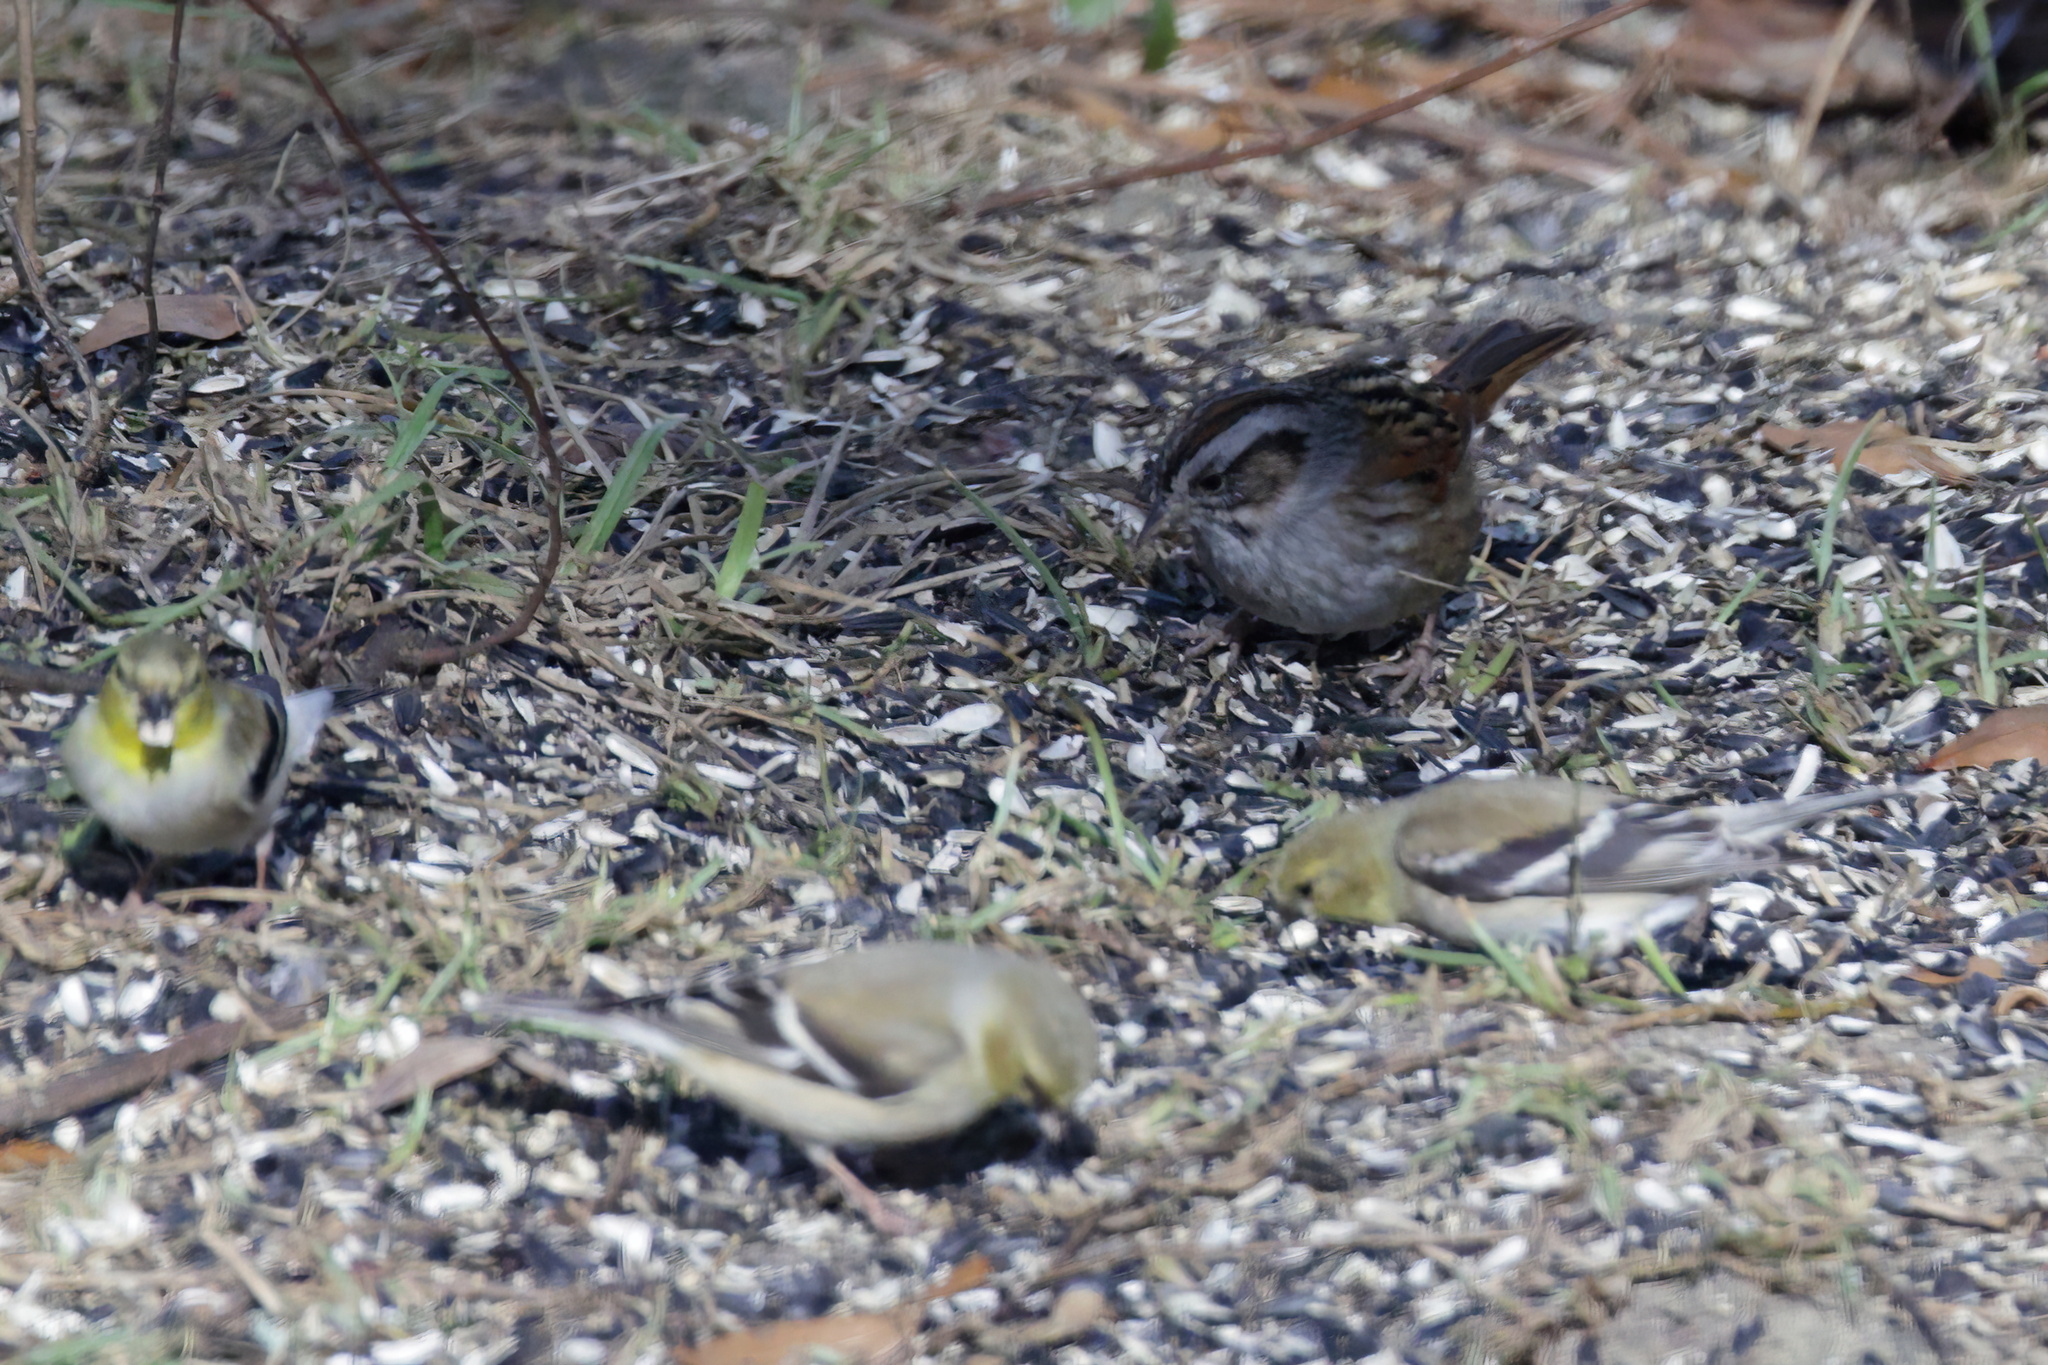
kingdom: Animalia
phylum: Chordata
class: Aves
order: Passeriformes
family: Passerellidae
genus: Melospiza
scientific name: Melospiza georgiana
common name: Swamp sparrow
